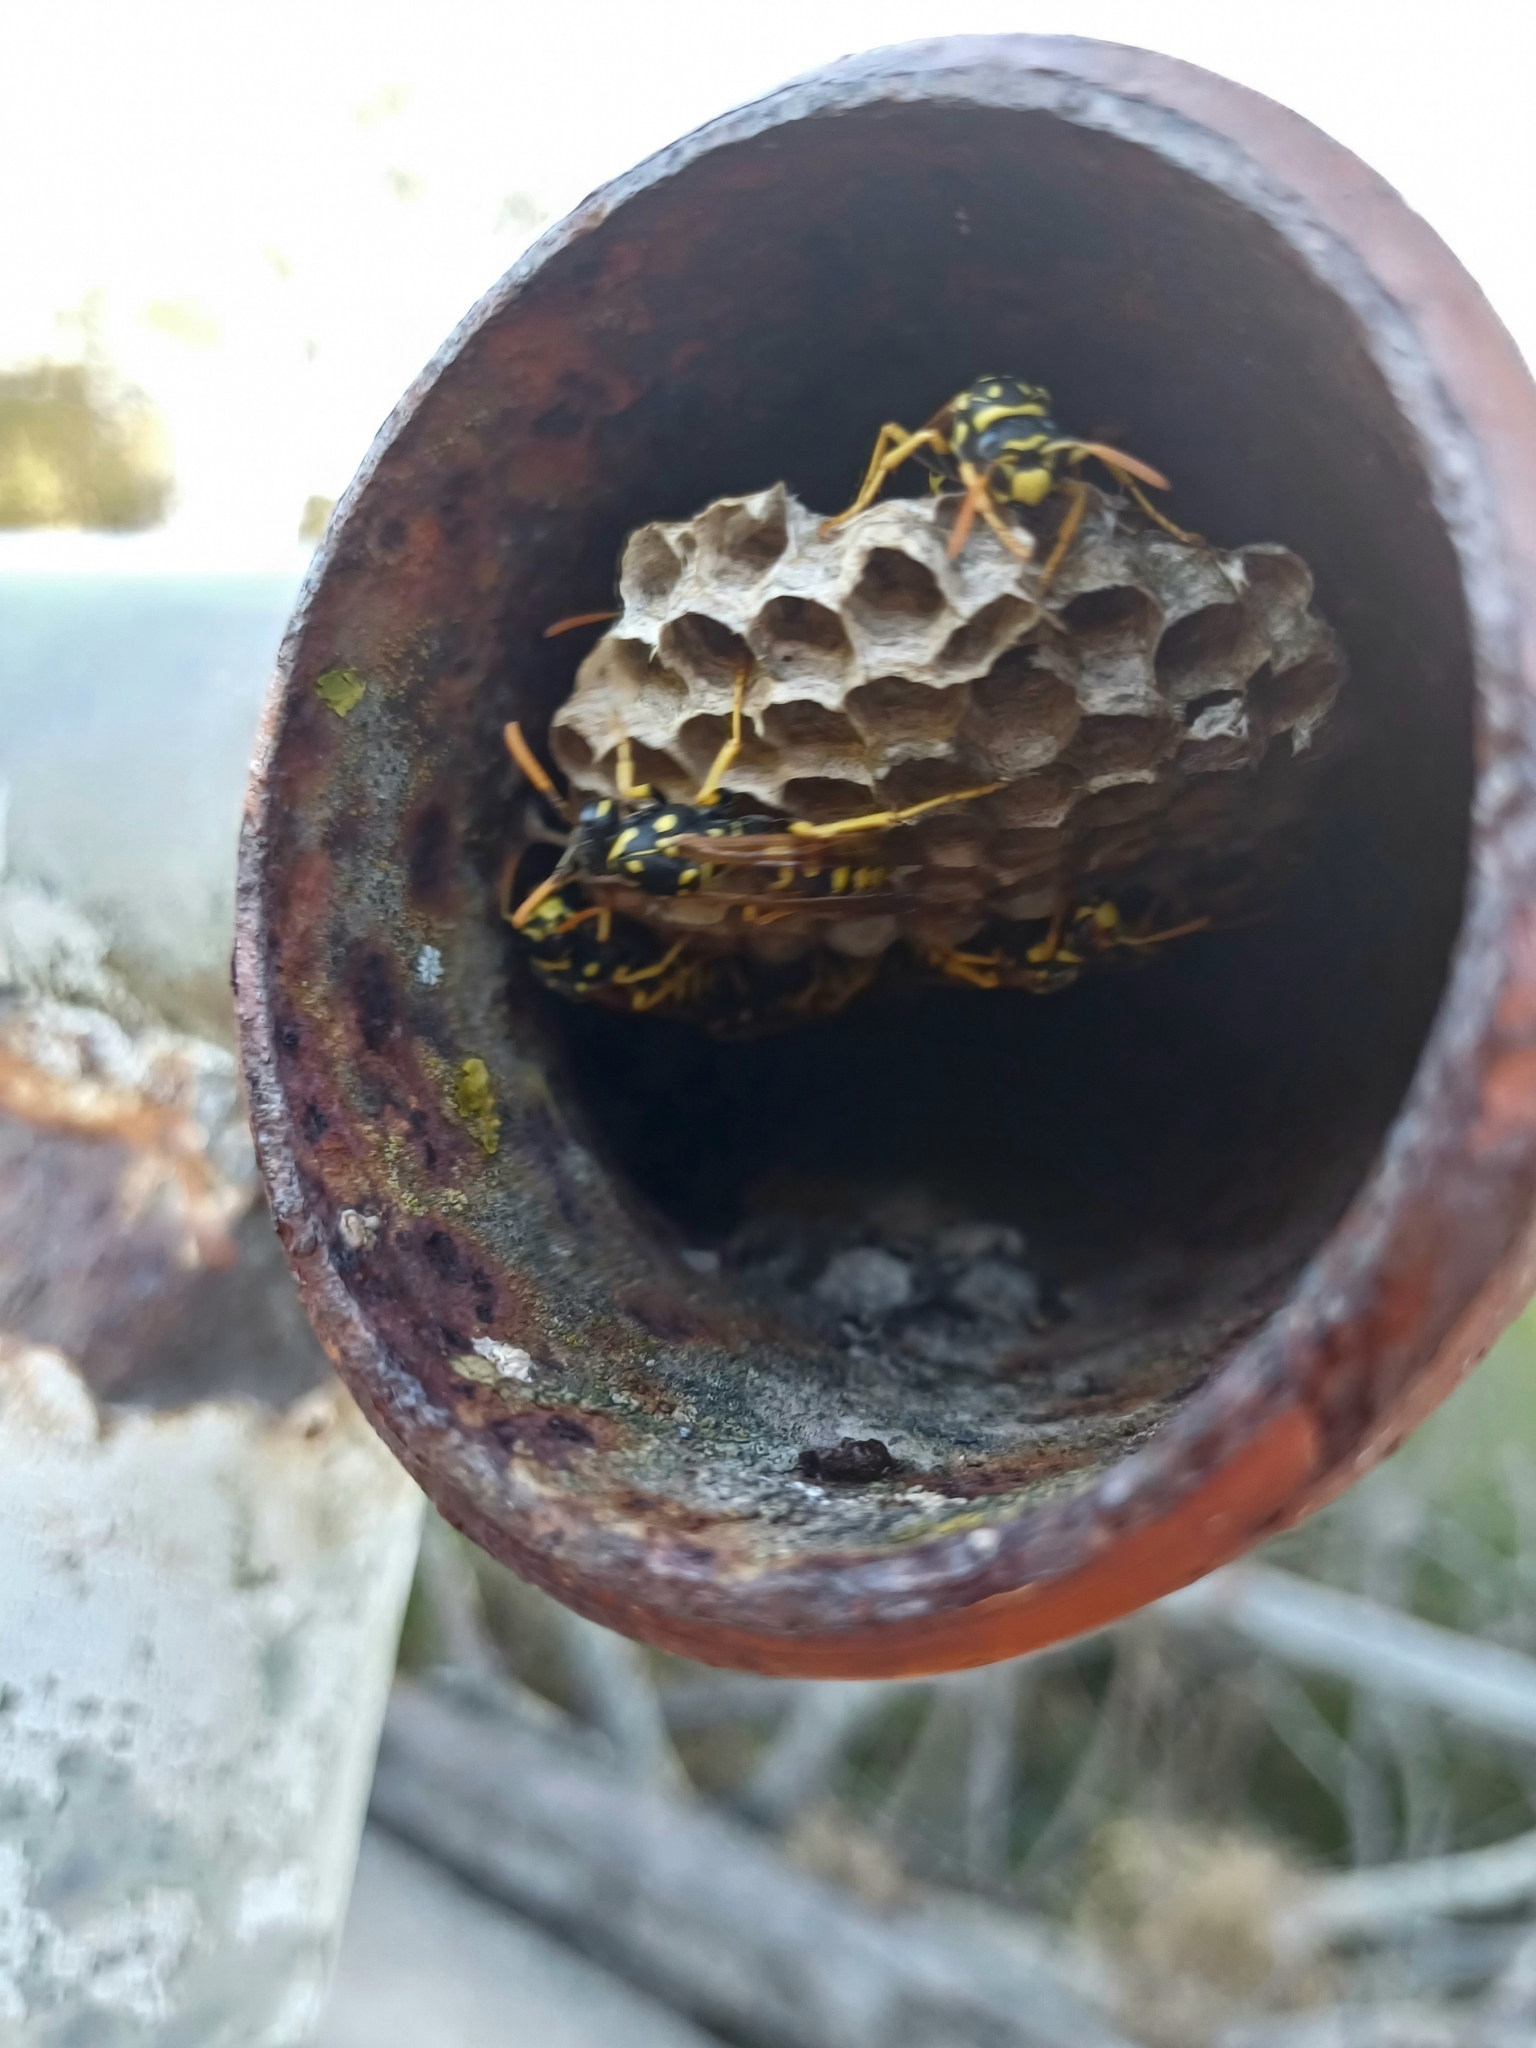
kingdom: Animalia
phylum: Arthropoda
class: Insecta
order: Hymenoptera
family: Eumenidae
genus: Polistes
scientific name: Polistes dominula
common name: Paper wasp
